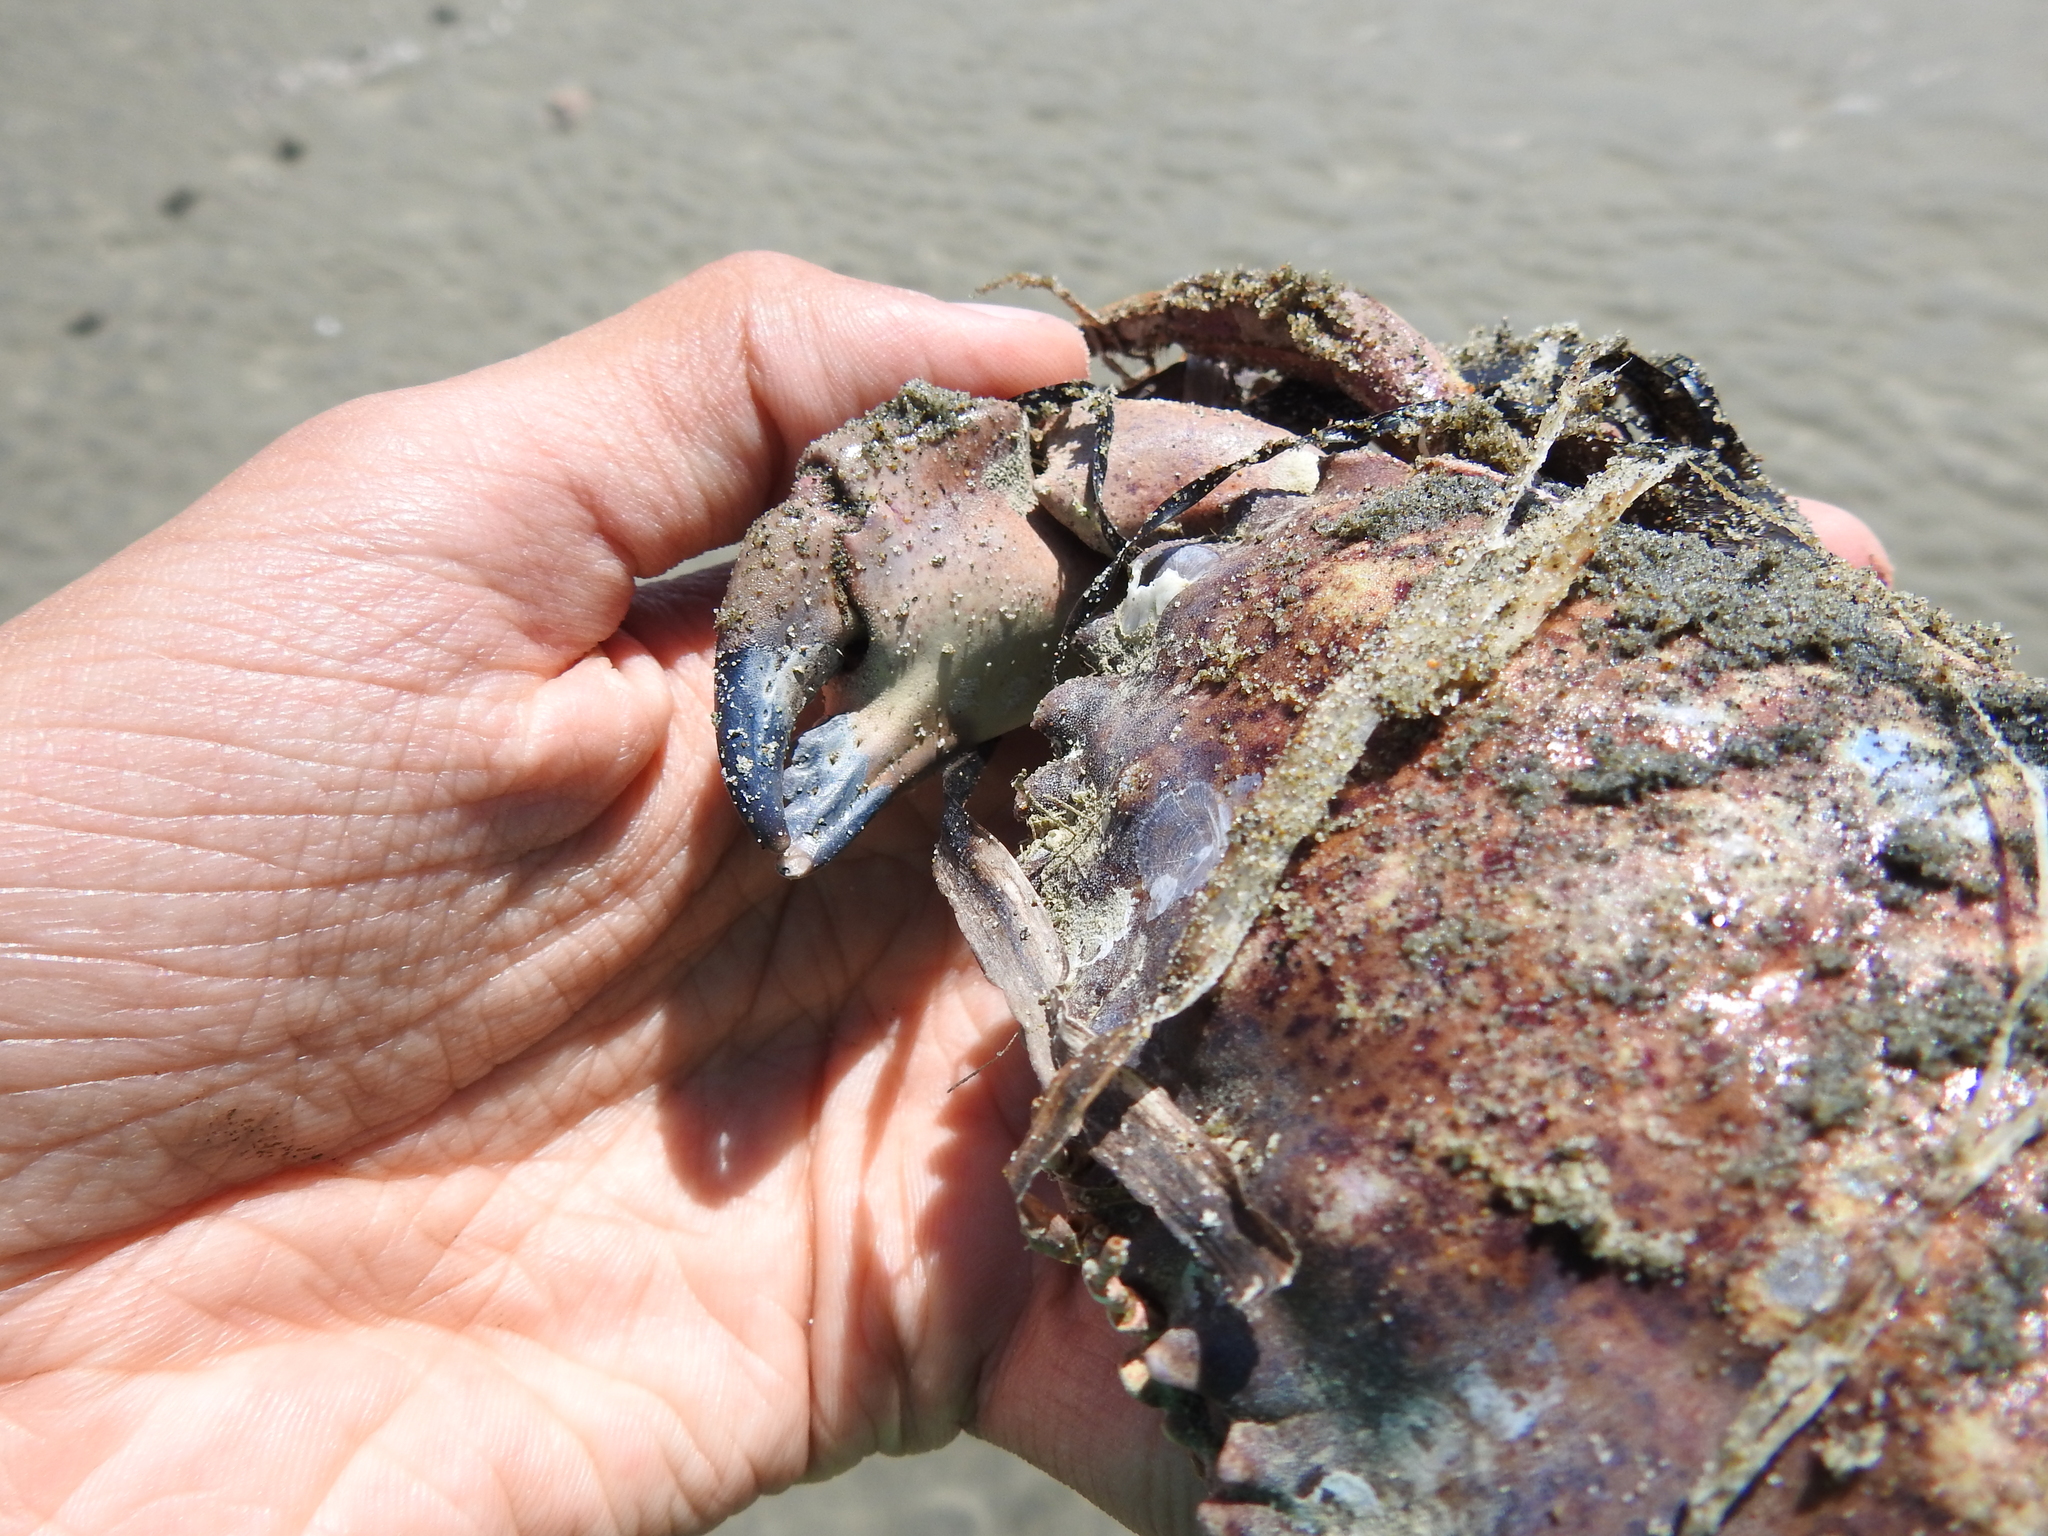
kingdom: Animalia
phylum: Arthropoda
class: Malacostraca
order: Decapoda
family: Cancridae
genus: Romaleon
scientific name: Romaleon antennarium
